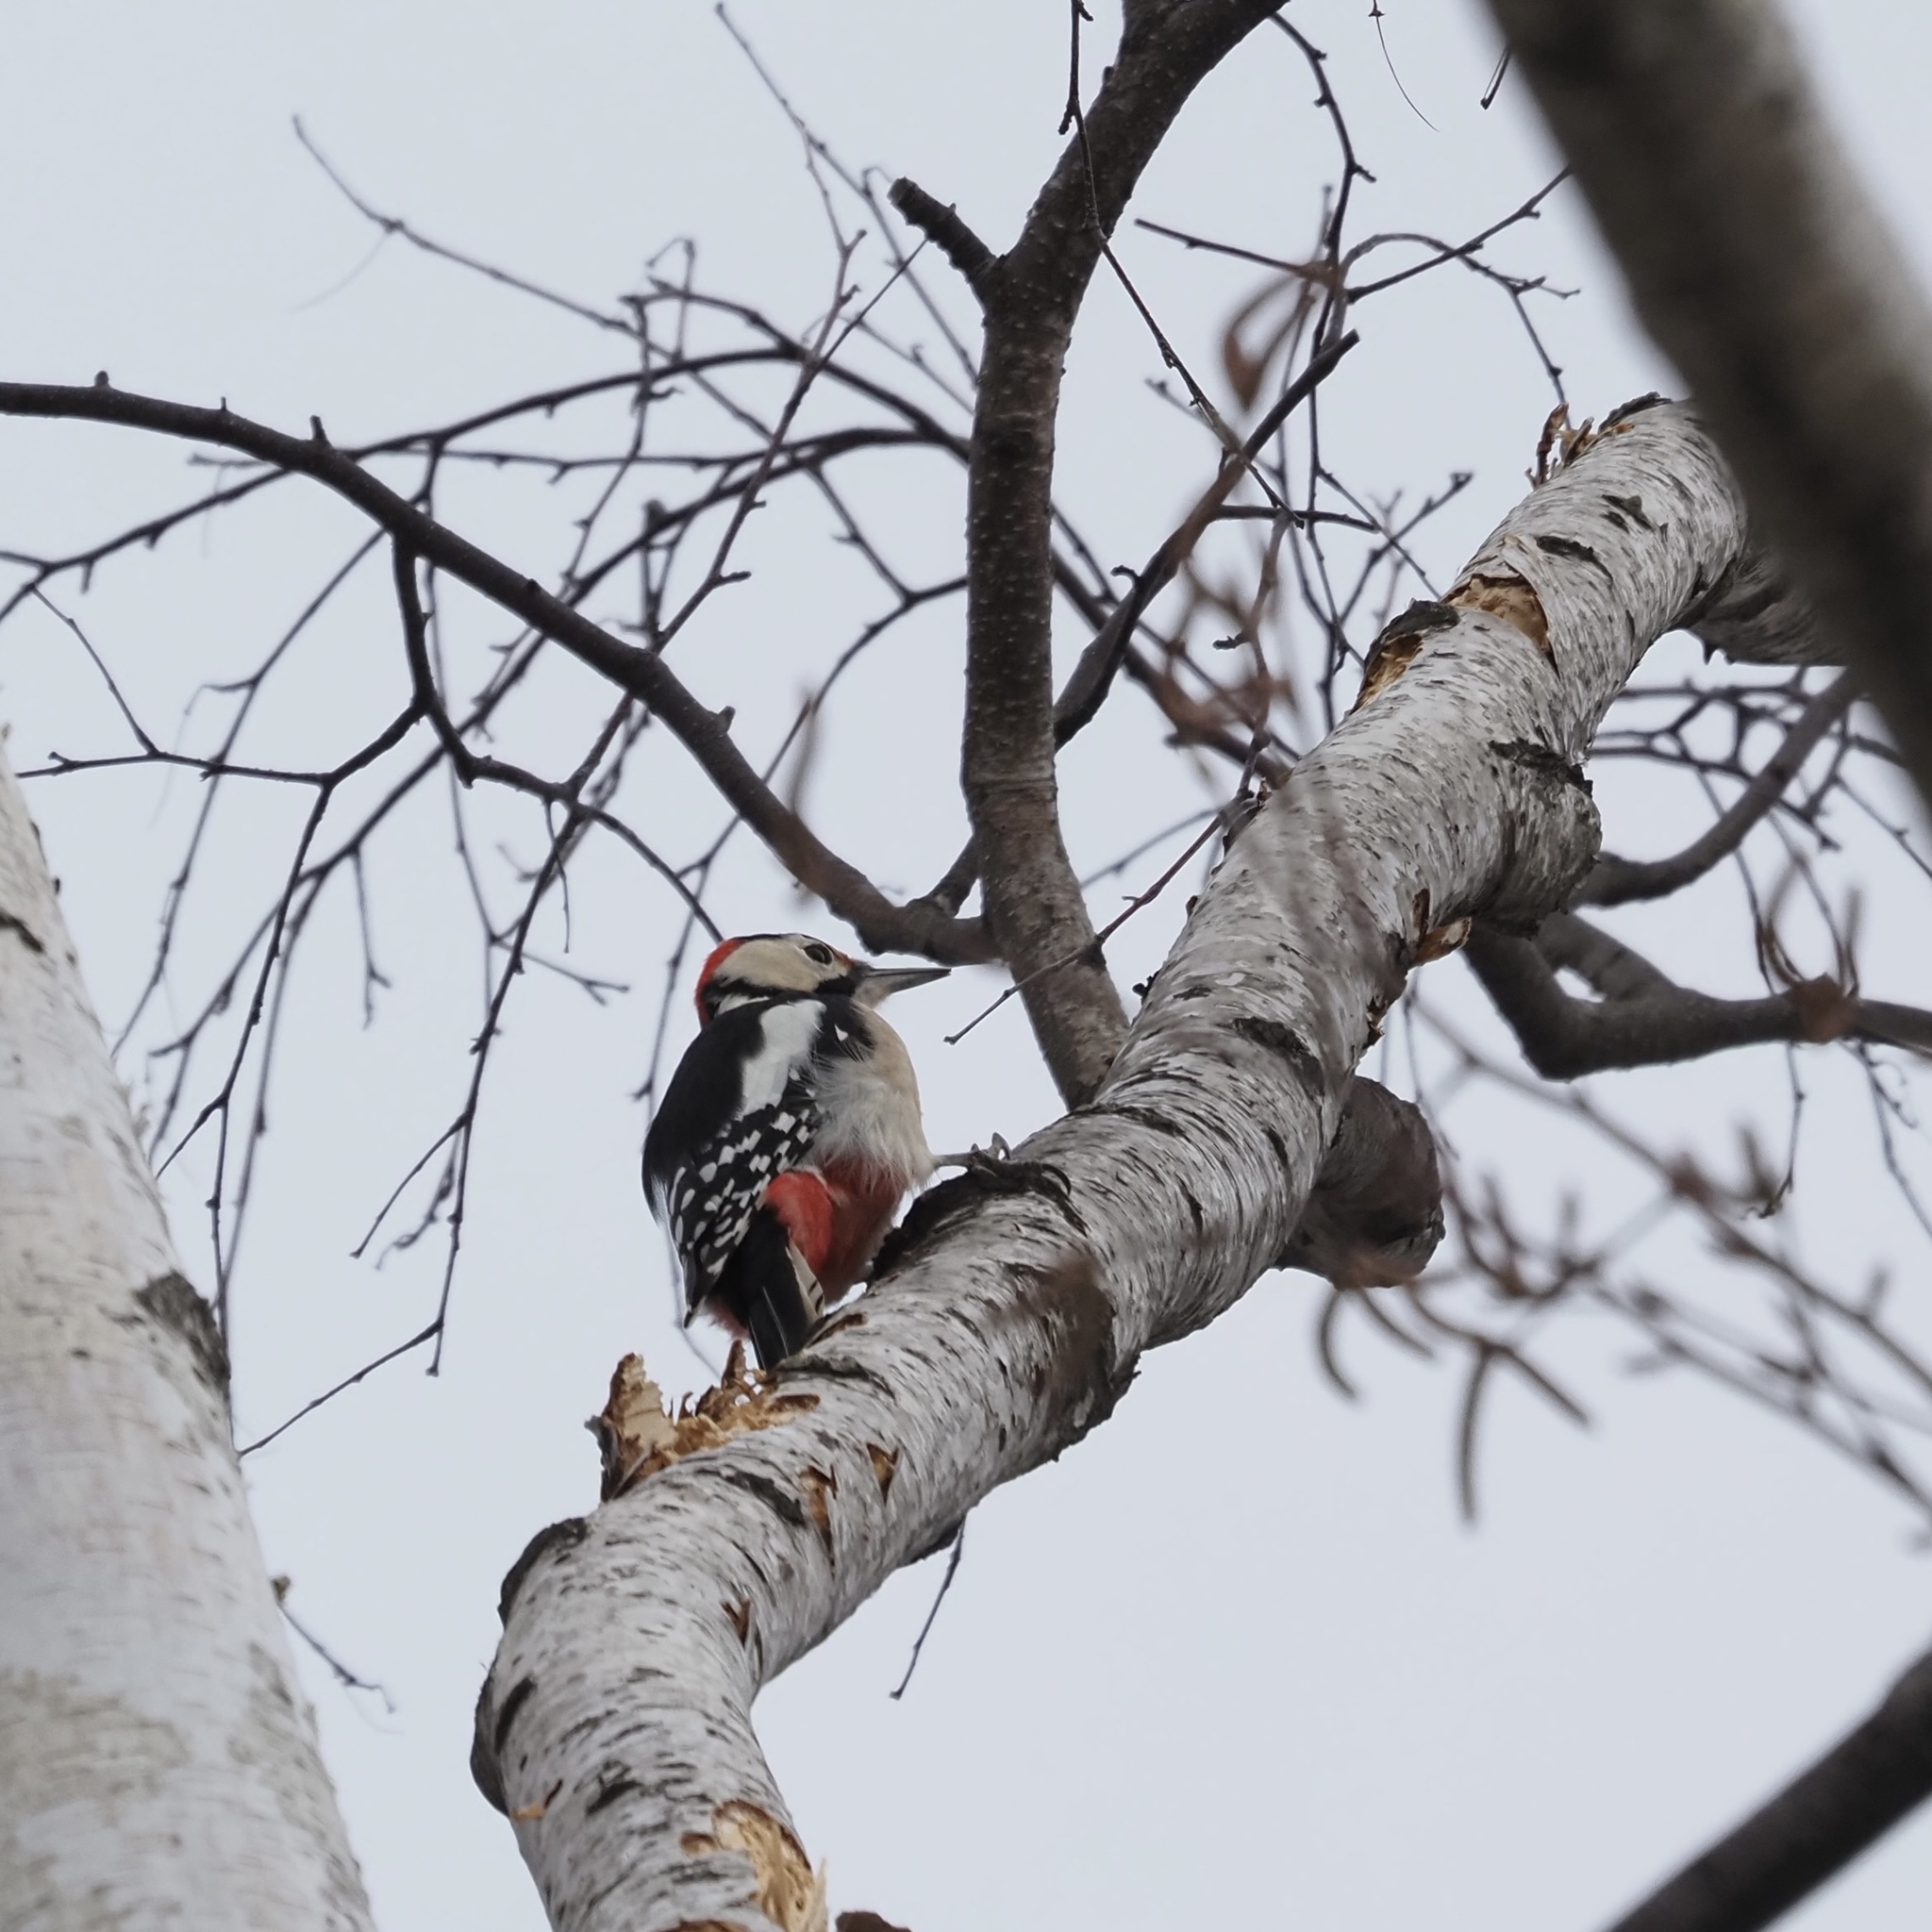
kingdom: Animalia
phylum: Chordata
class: Aves
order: Piciformes
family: Picidae
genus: Dendrocopos
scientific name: Dendrocopos major
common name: Great spotted woodpecker
